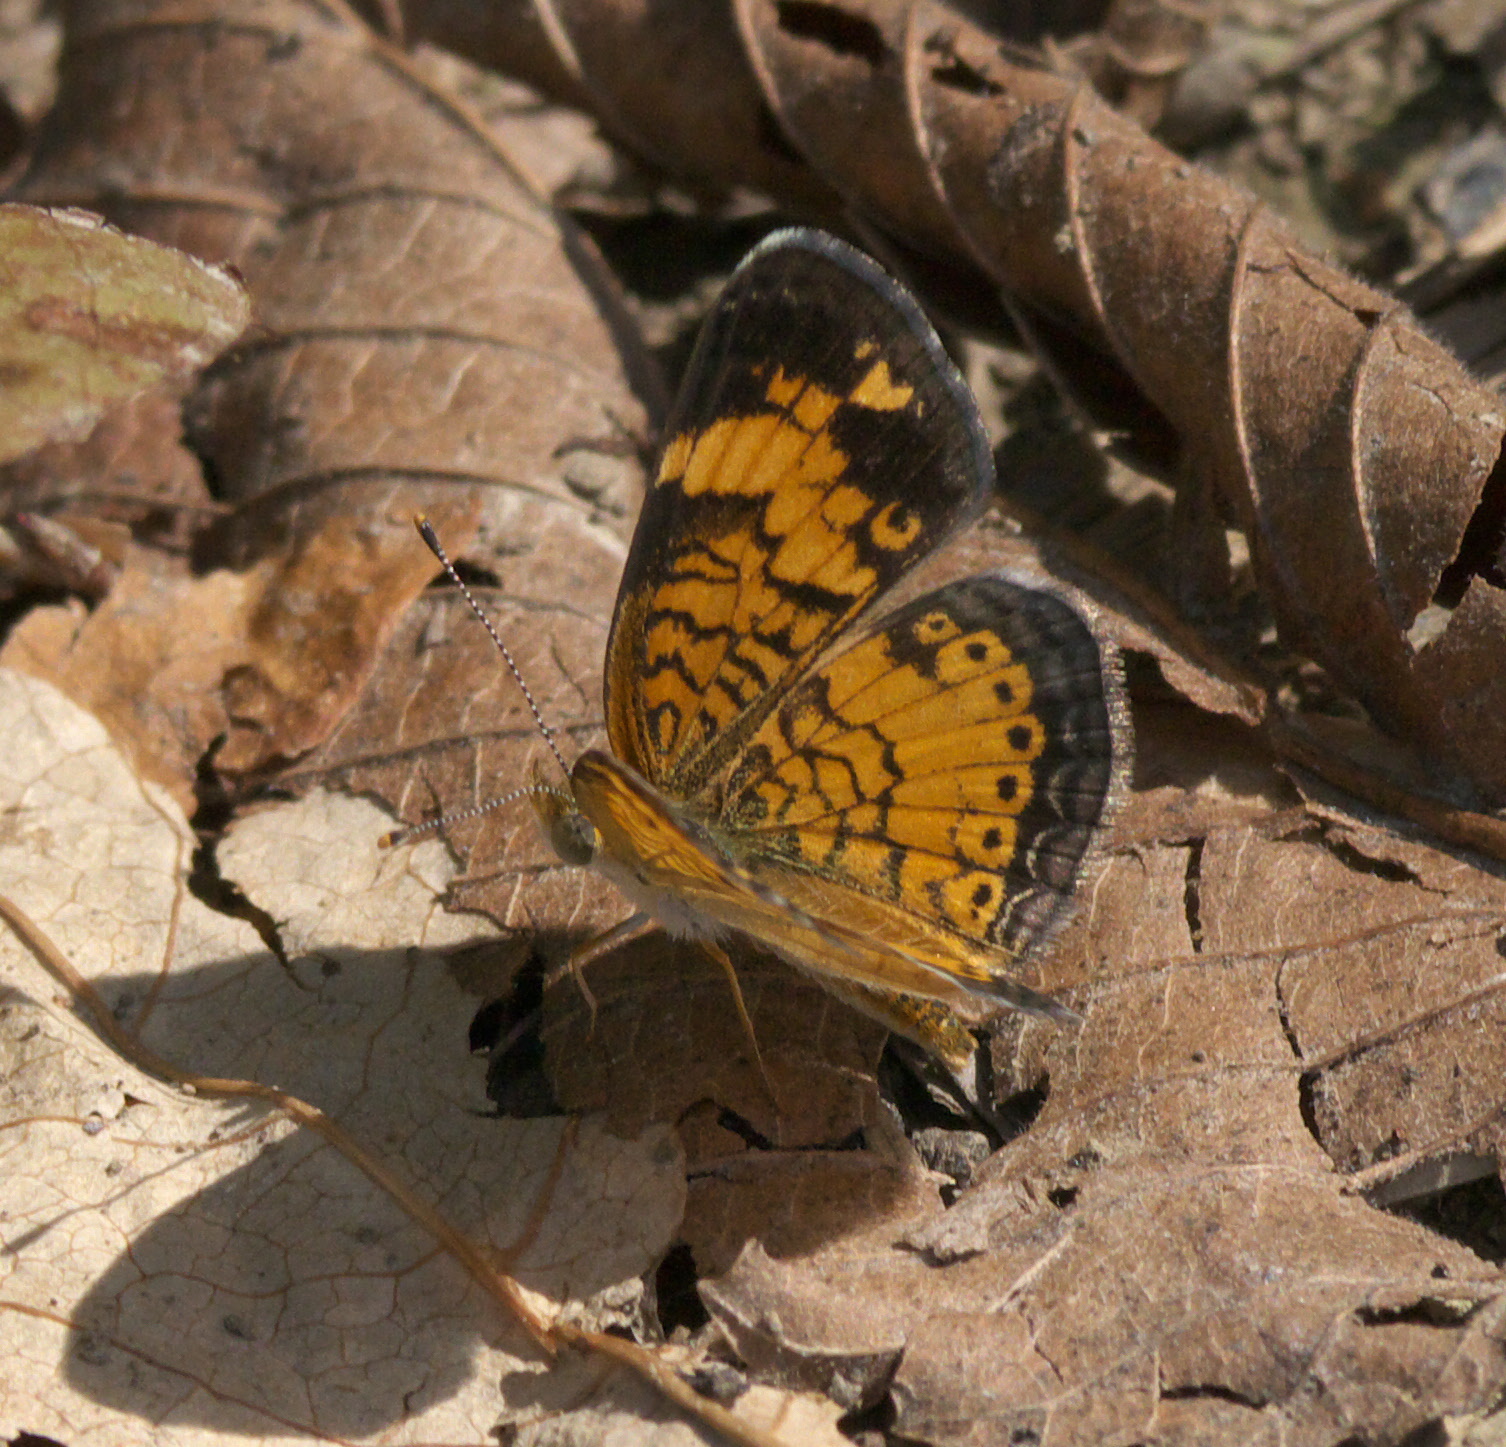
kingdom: Animalia
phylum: Arthropoda
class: Insecta
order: Lepidoptera
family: Nymphalidae
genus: Phyciodes
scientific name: Phyciodes tharos
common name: Pearl crescent
